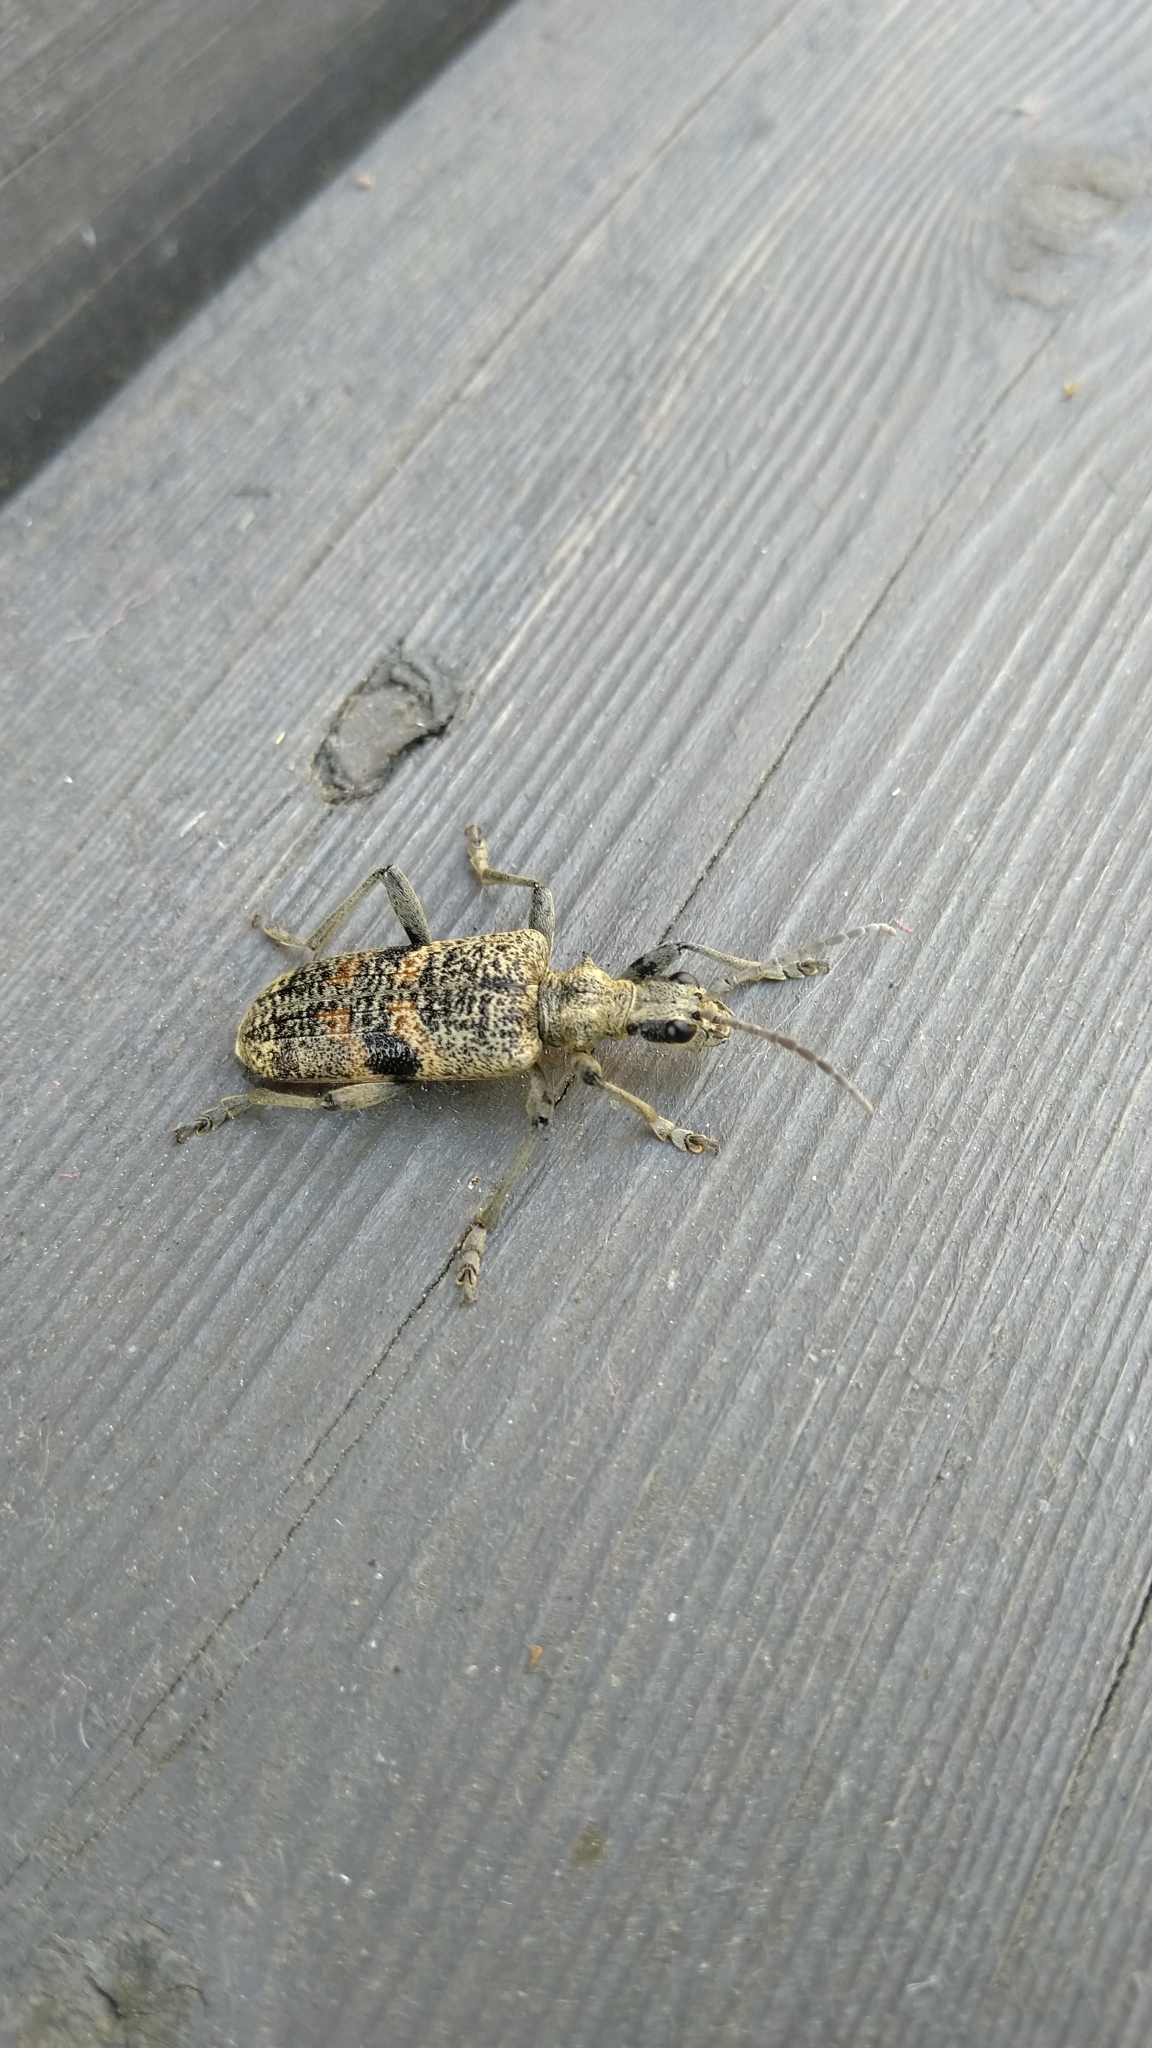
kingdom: Animalia
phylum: Arthropoda
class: Insecta
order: Coleoptera
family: Cerambycidae
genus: Rhagium
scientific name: Rhagium mordax
